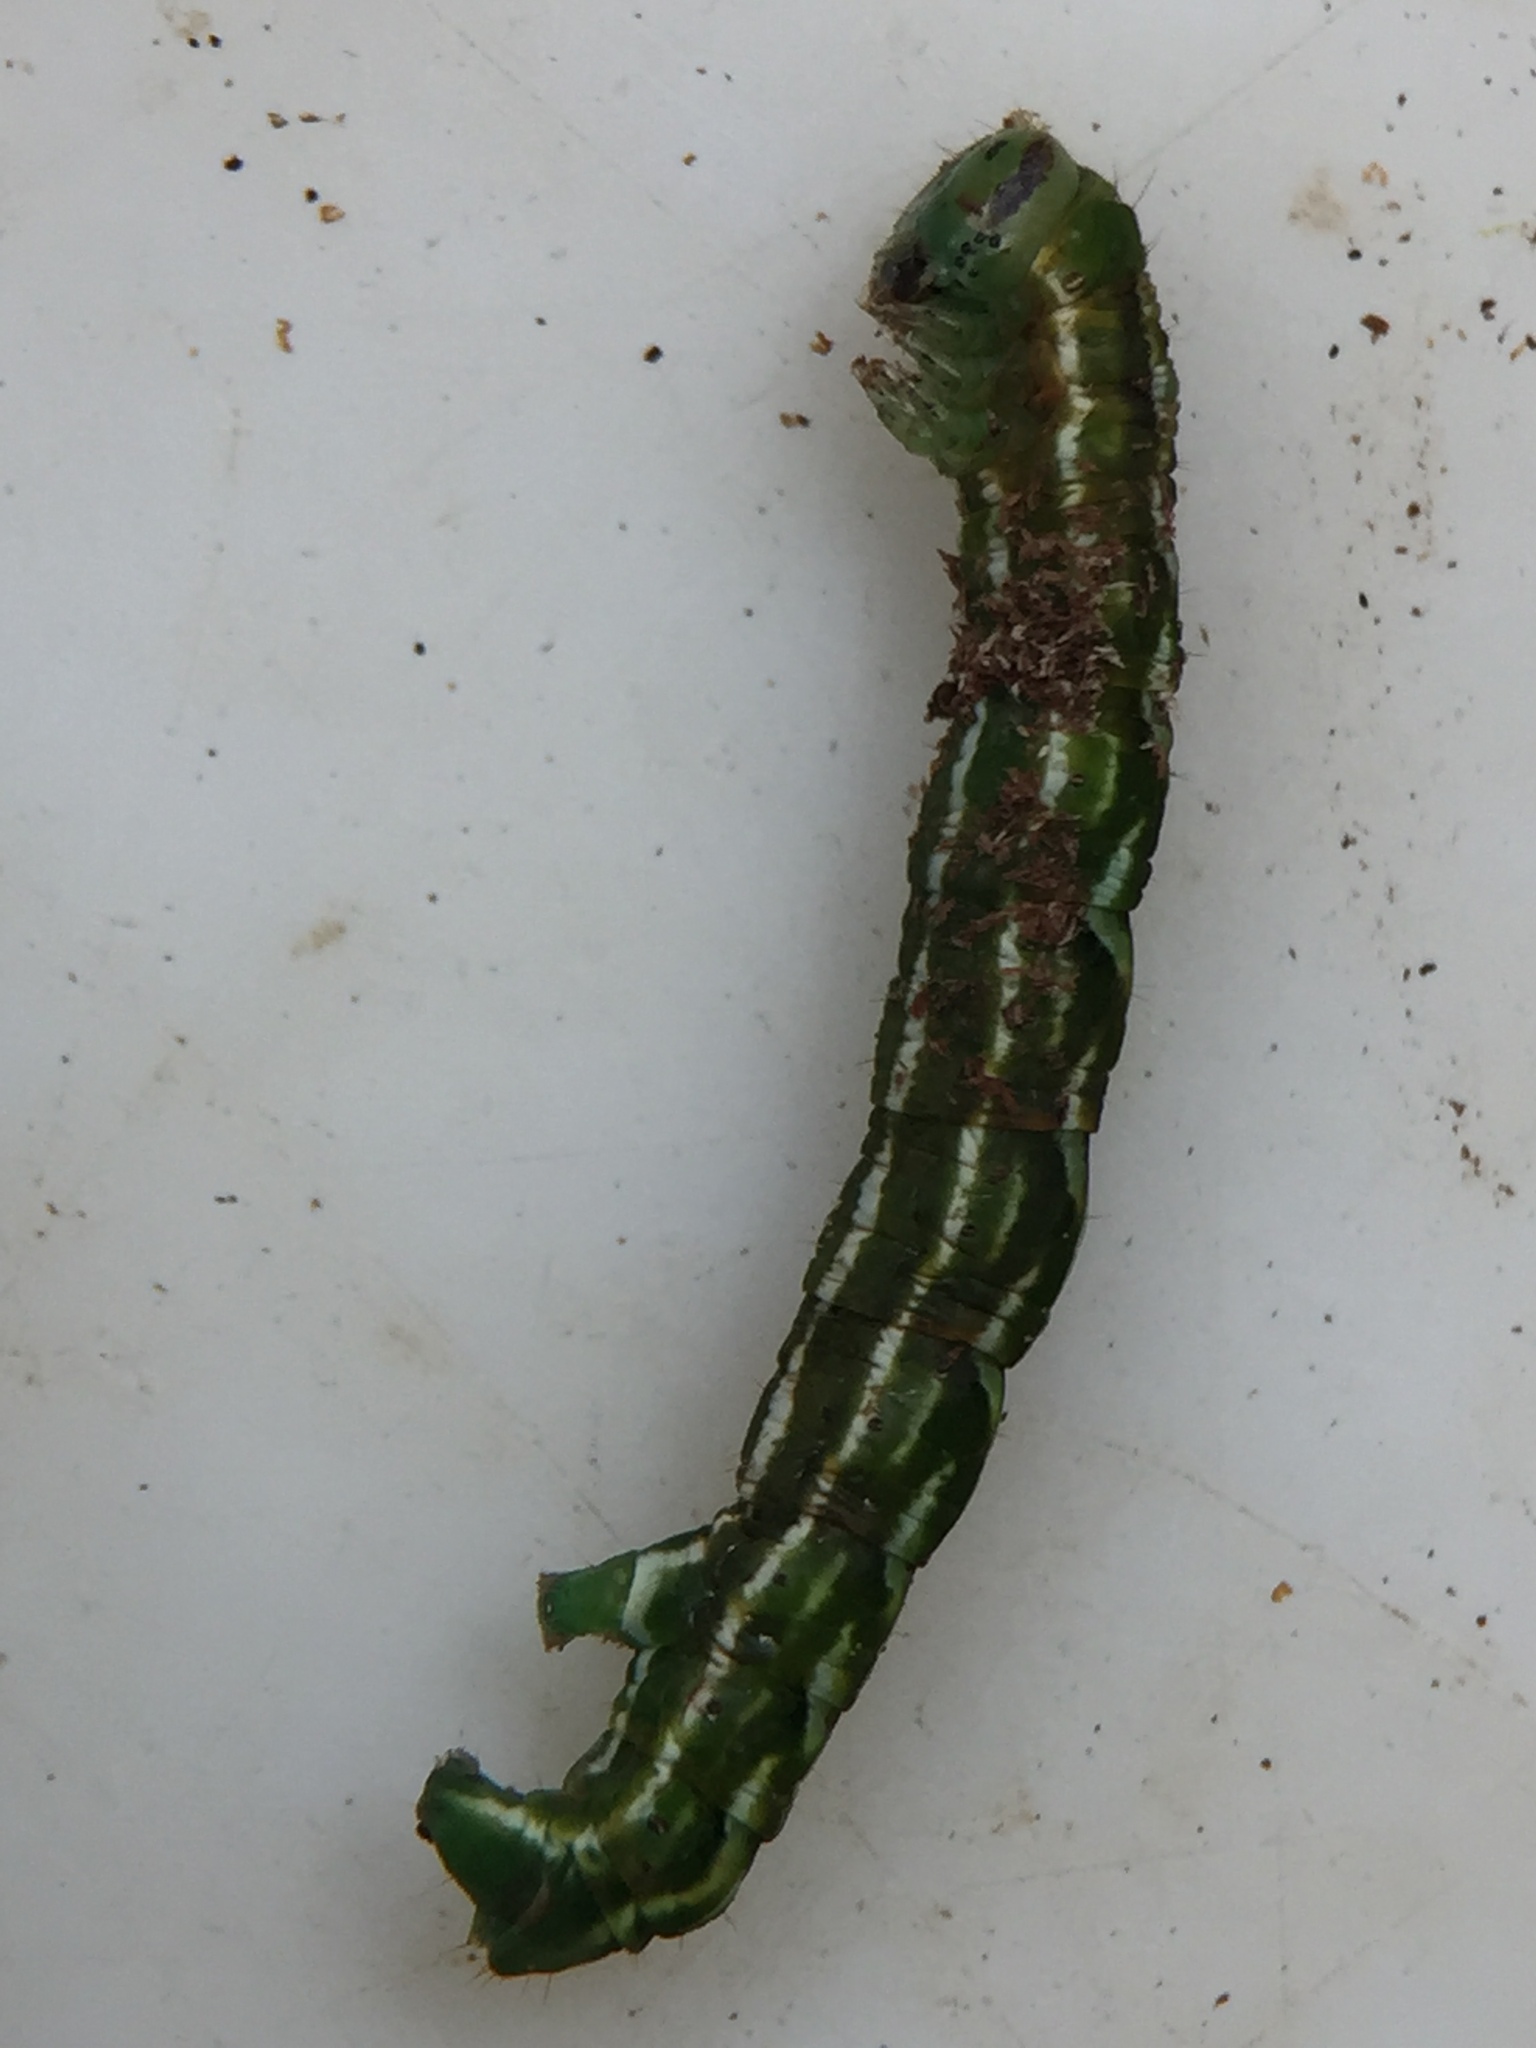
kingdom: Animalia
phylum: Arthropoda
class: Insecta
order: Lepidoptera
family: Geometridae
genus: Pseudocoremia
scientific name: Pseudocoremia fenerata
